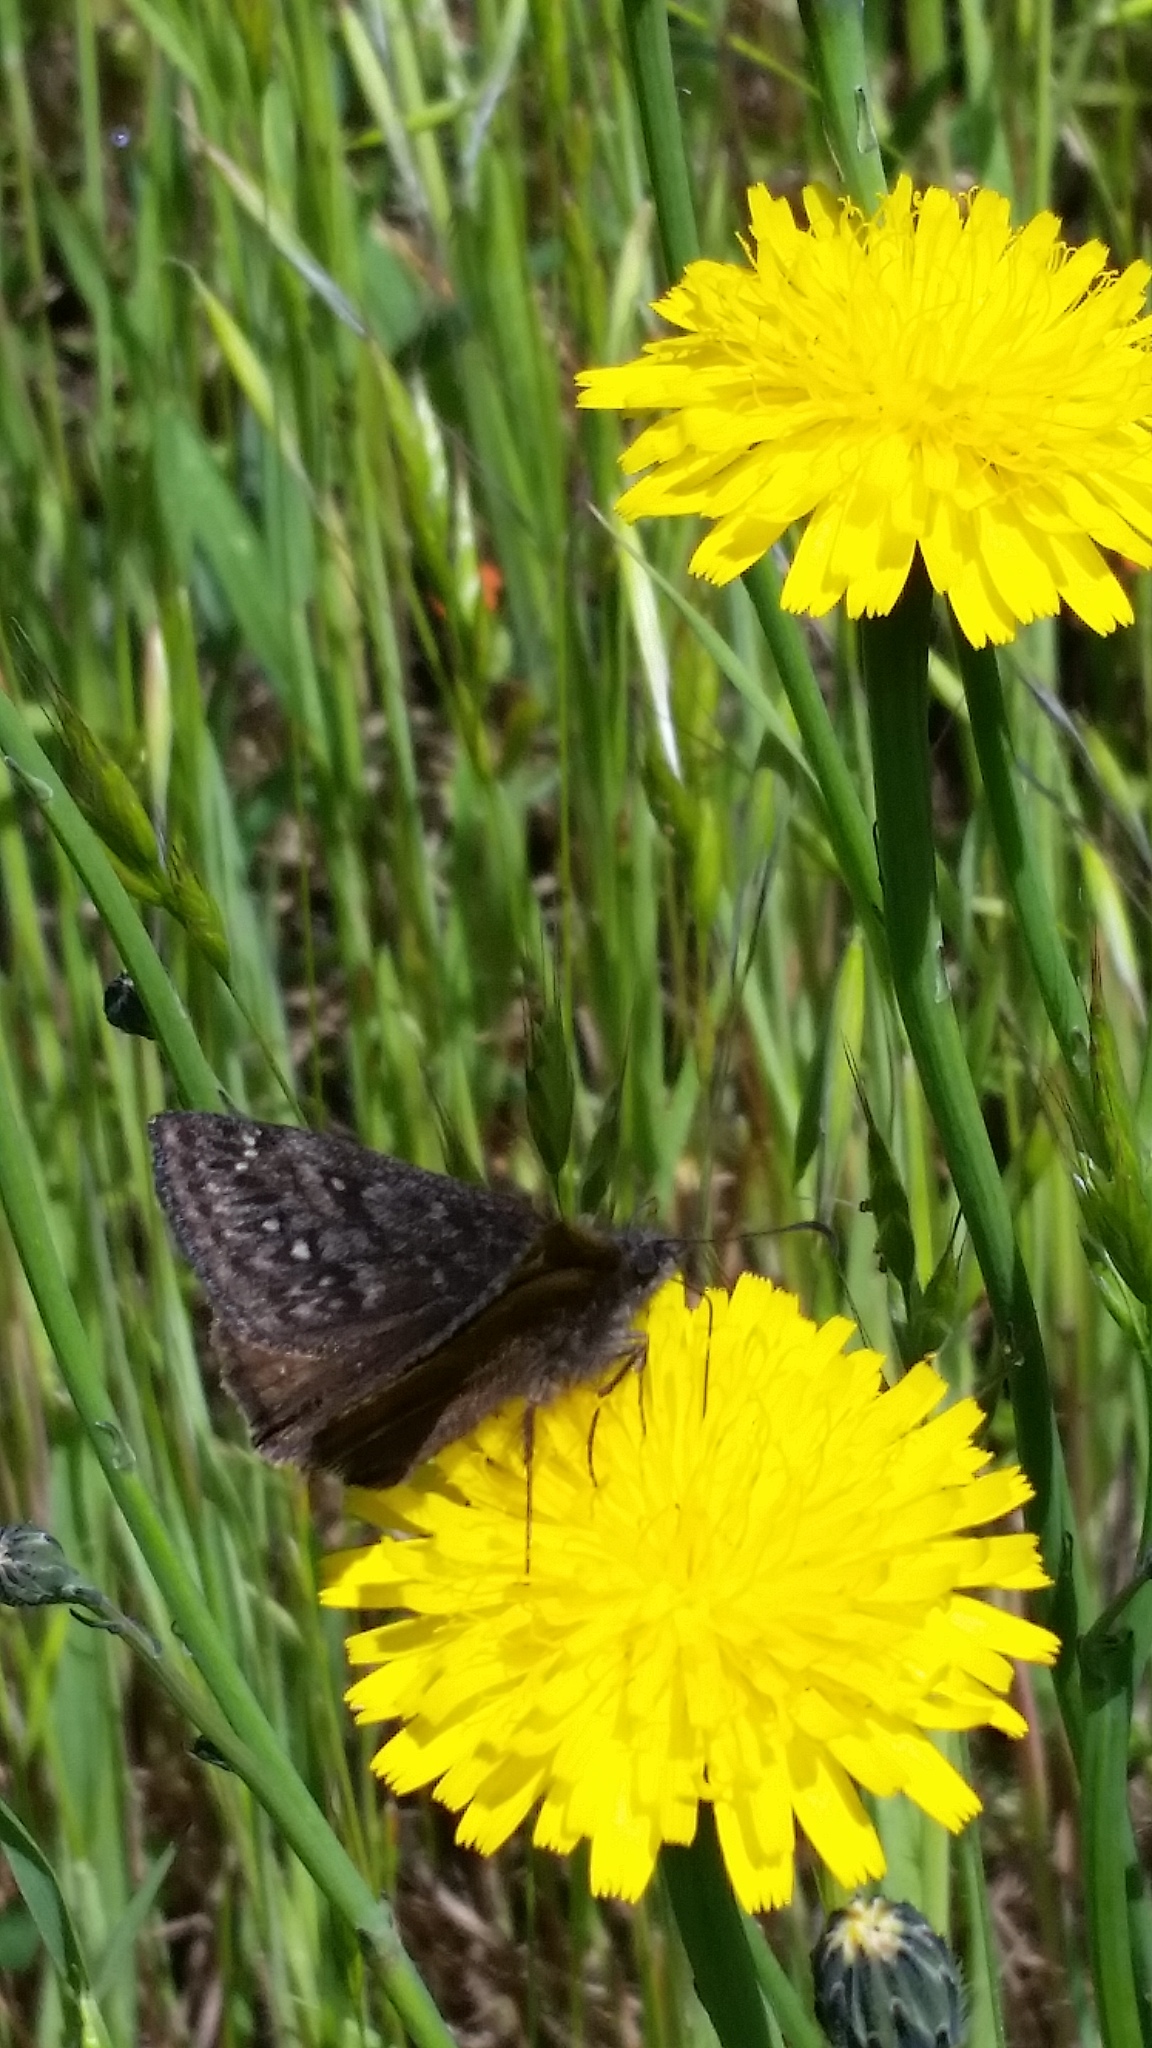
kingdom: Animalia
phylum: Arthropoda
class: Insecta
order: Lepidoptera
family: Hesperiidae
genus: Erynnis
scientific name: Erynnis propertius
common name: Propertius duskywing
